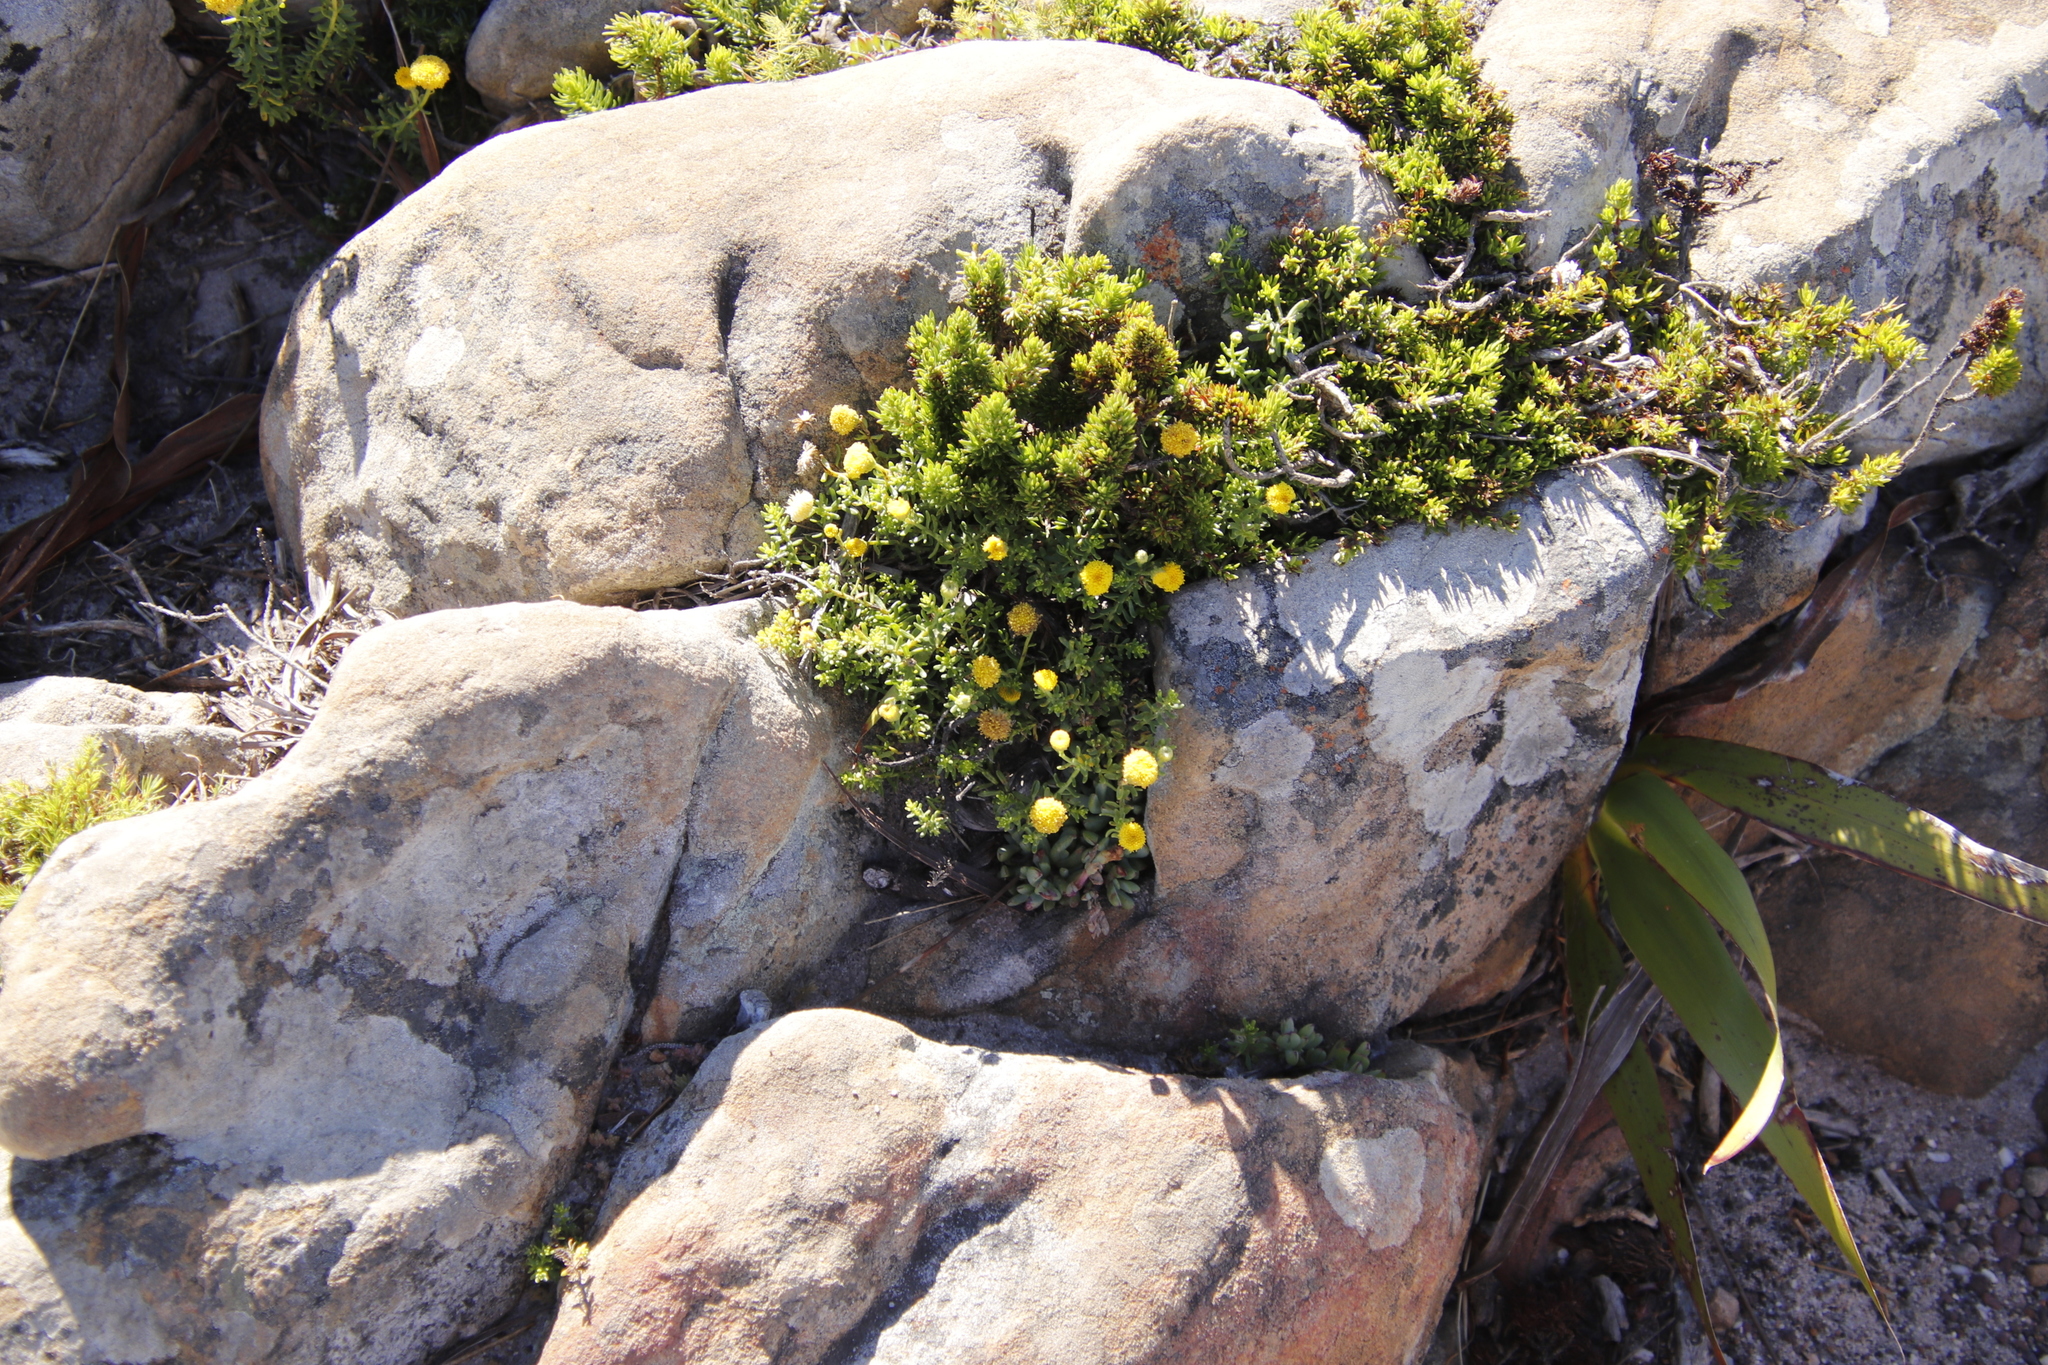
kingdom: Plantae
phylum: Tracheophyta
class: Magnoliopsida
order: Asterales
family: Asteraceae
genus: Chrysocoma
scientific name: Chrysocoma cernua
